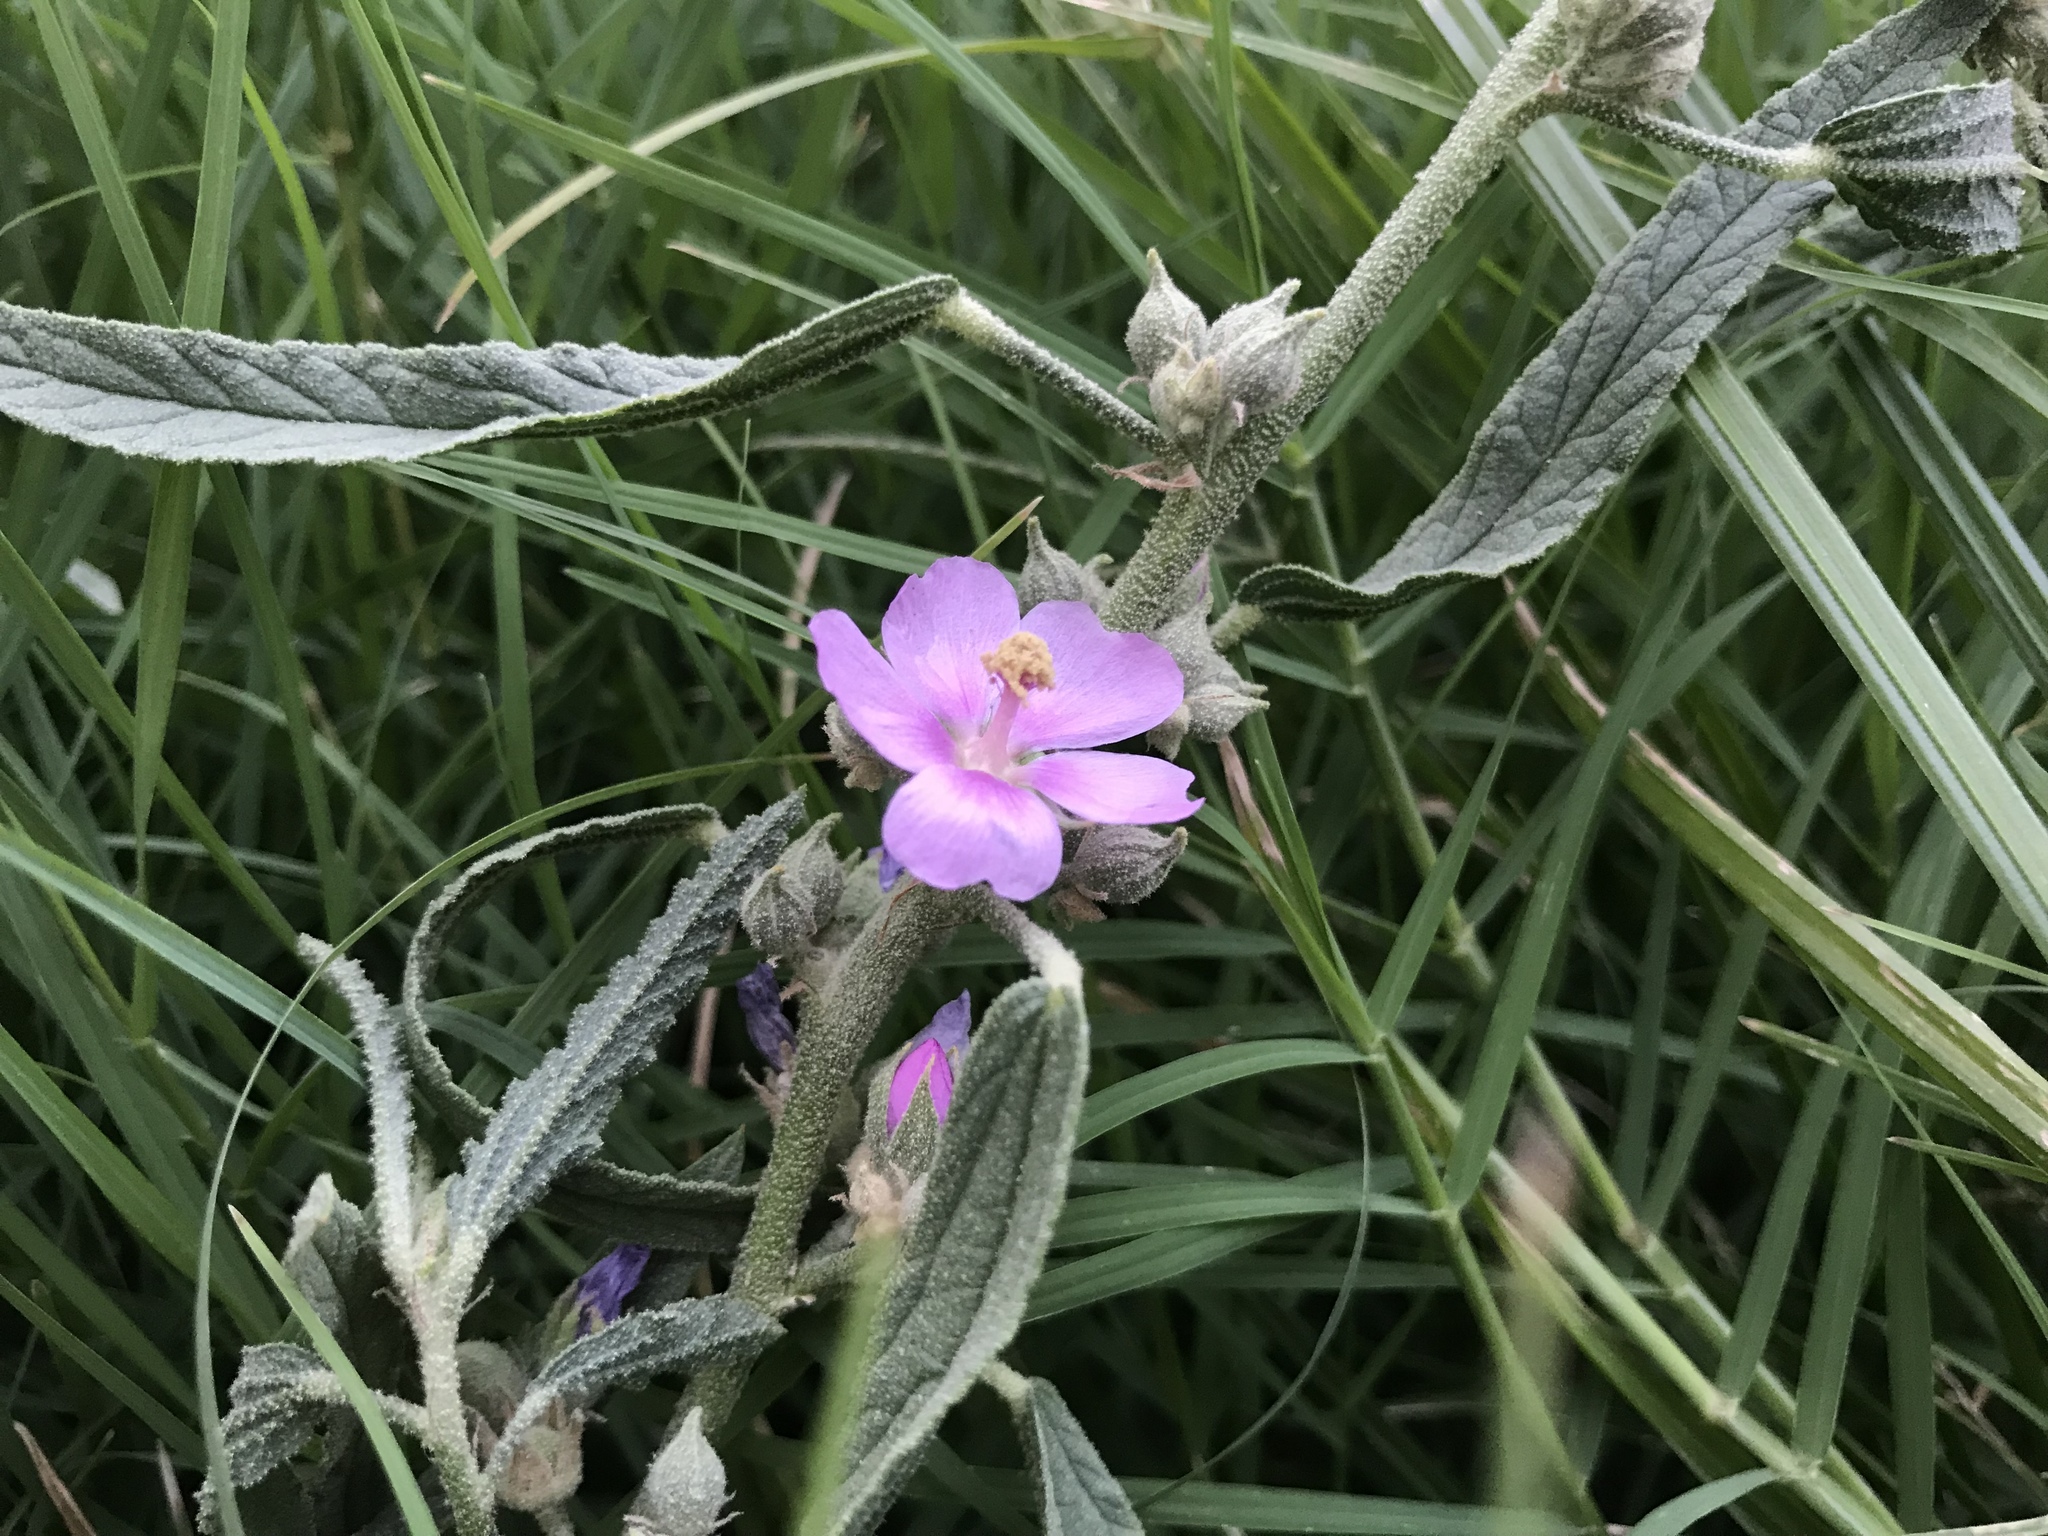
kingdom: Plantae
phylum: Tracheophyta
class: Magnoliopsida
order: Malvales
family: Malvaceae
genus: Sphaeralcea
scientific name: Sphaeralcea angustifolia
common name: Copper globe-mallow
